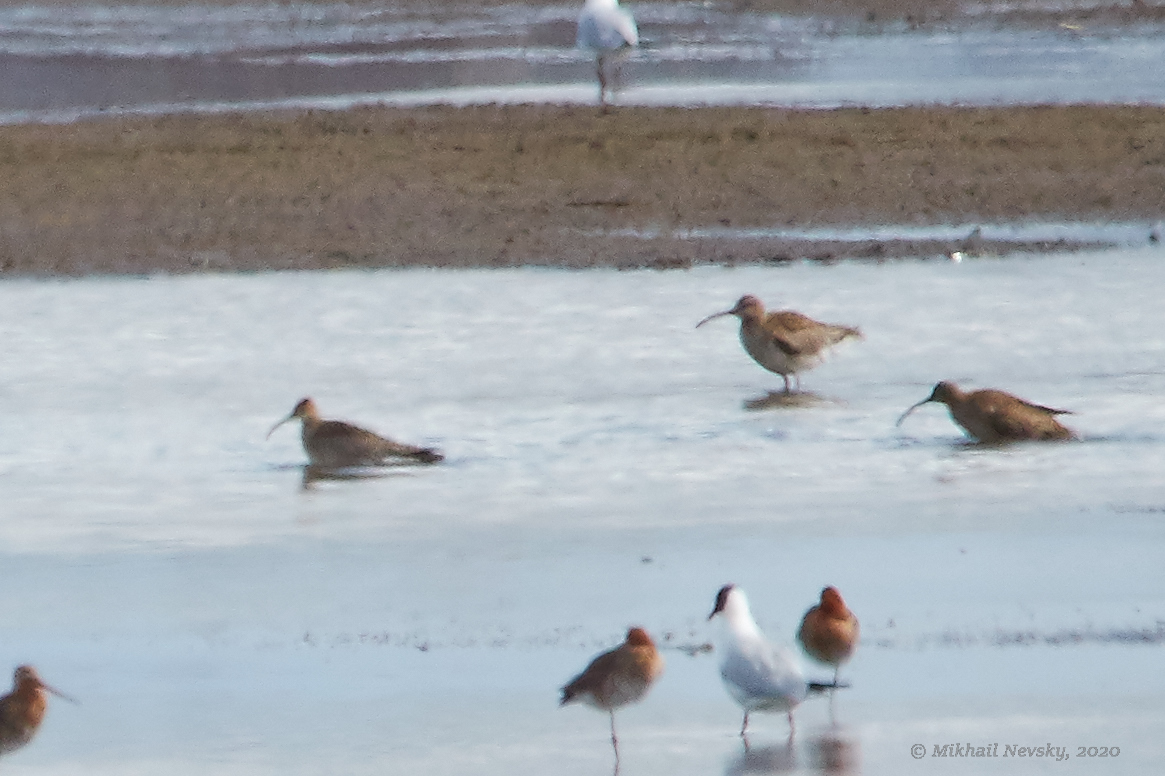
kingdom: Animalia
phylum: Chordata
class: Aves
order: Charadriiformes
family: Scolopacidae
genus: Numenius
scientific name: Numenius phaeopus
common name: Whimbrel
